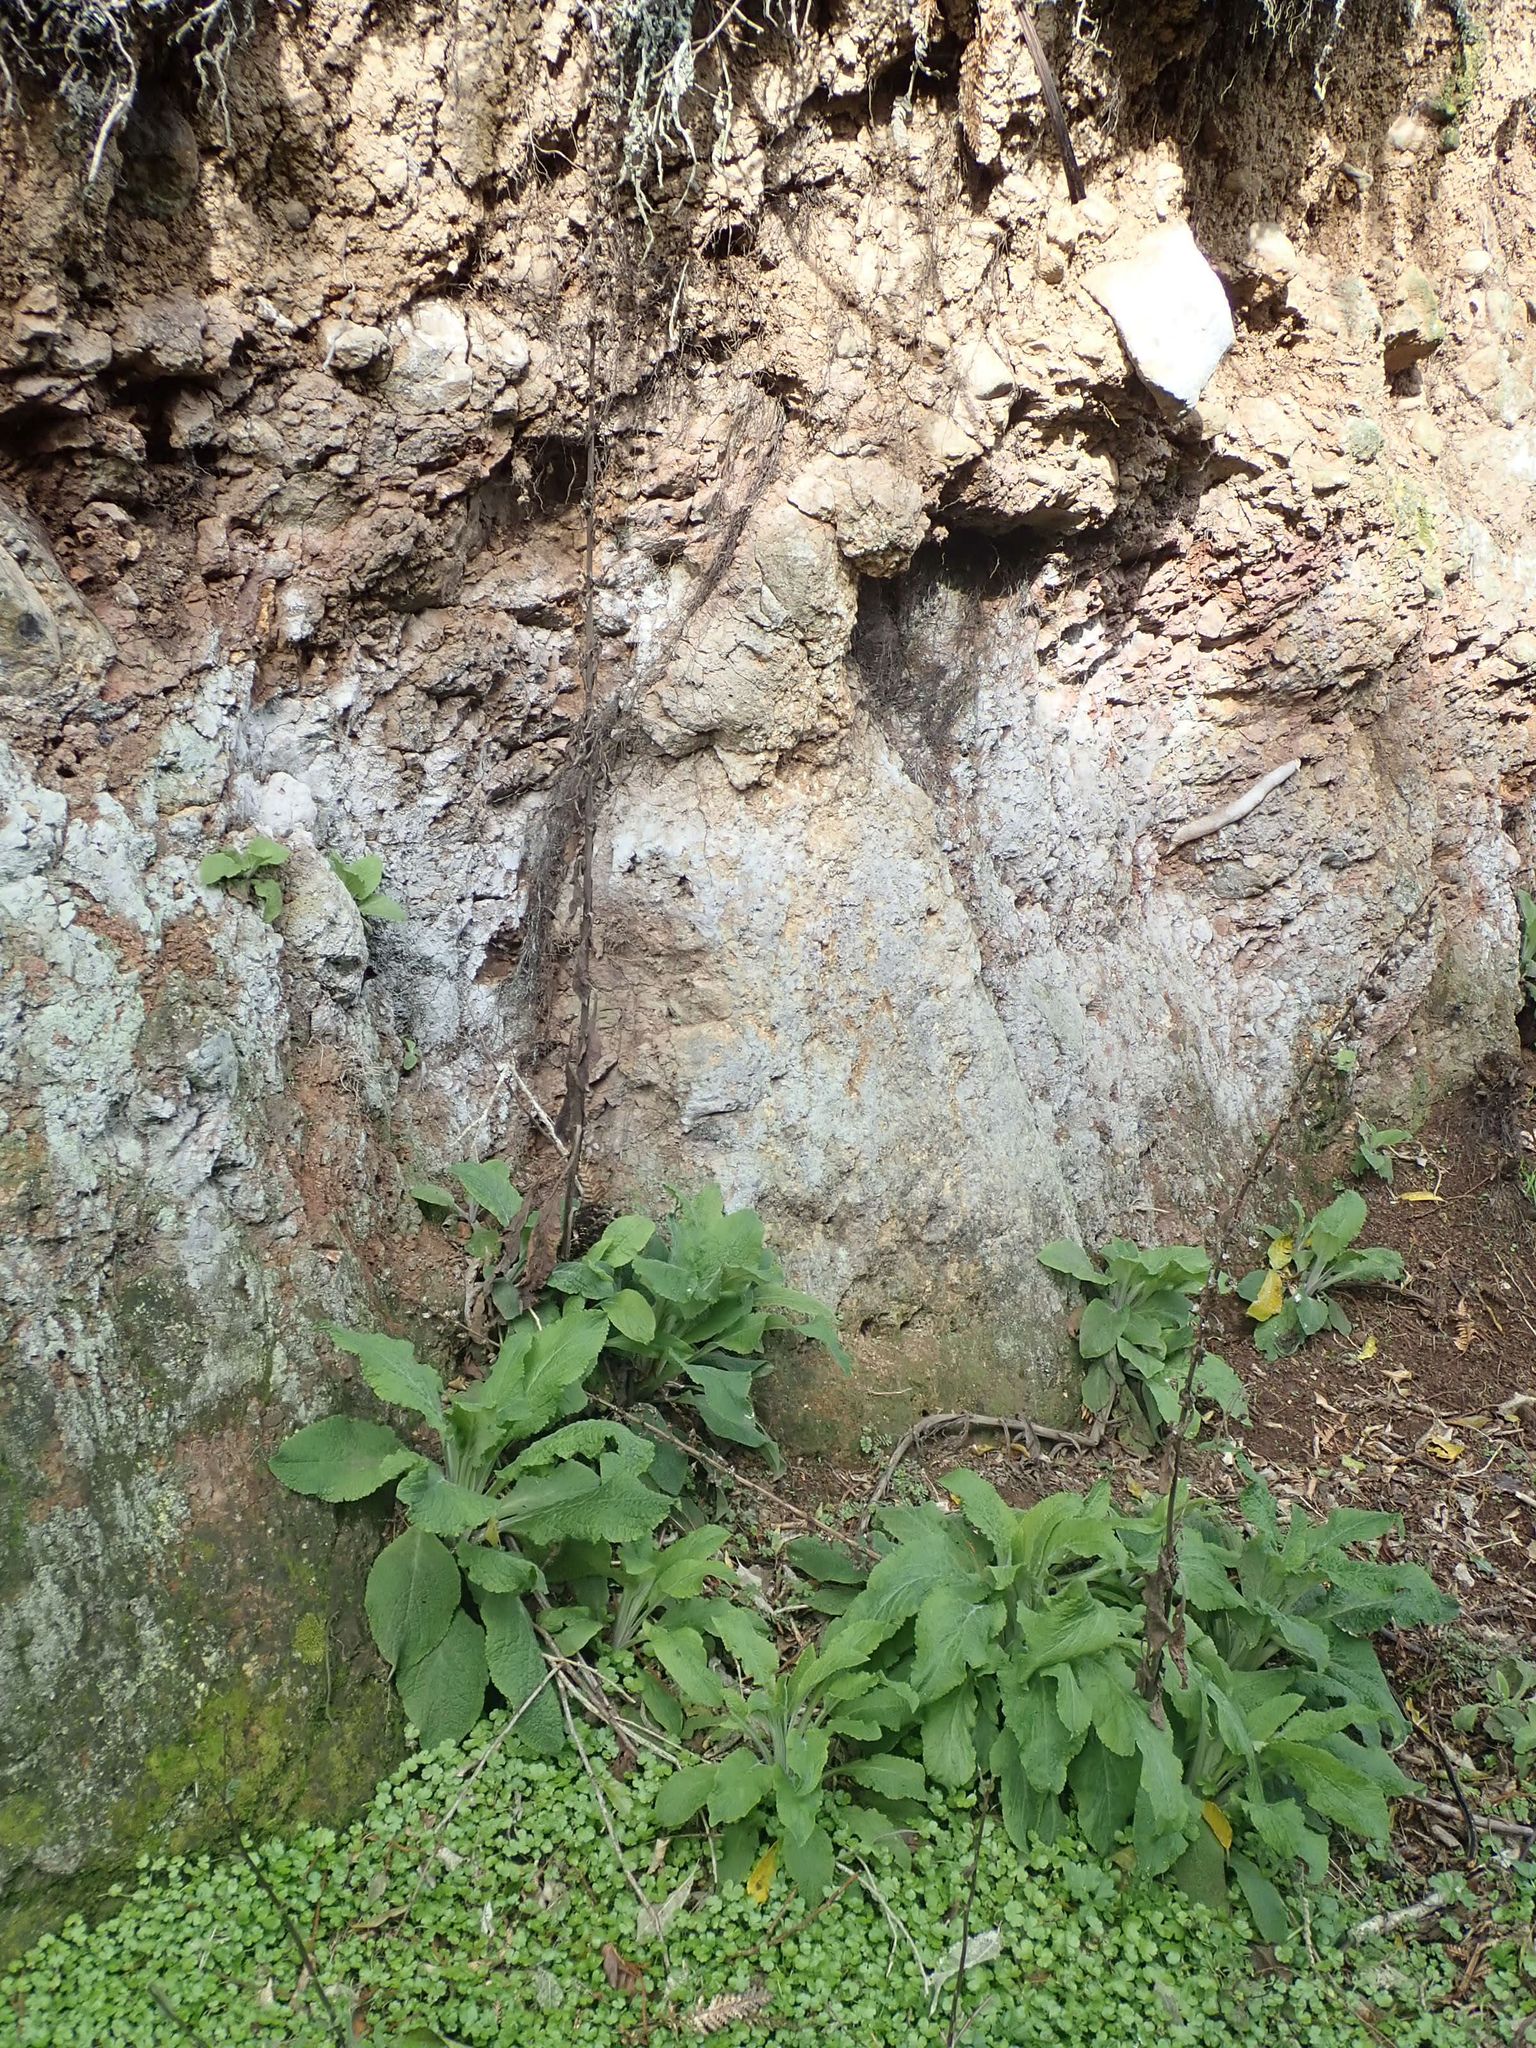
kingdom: Plantae
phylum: Tracheophyta
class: Magnoliopsida
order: Lamiales
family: Plantaginaceae
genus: Digitalis
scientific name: Digitalis purpurea
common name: Foxglove
